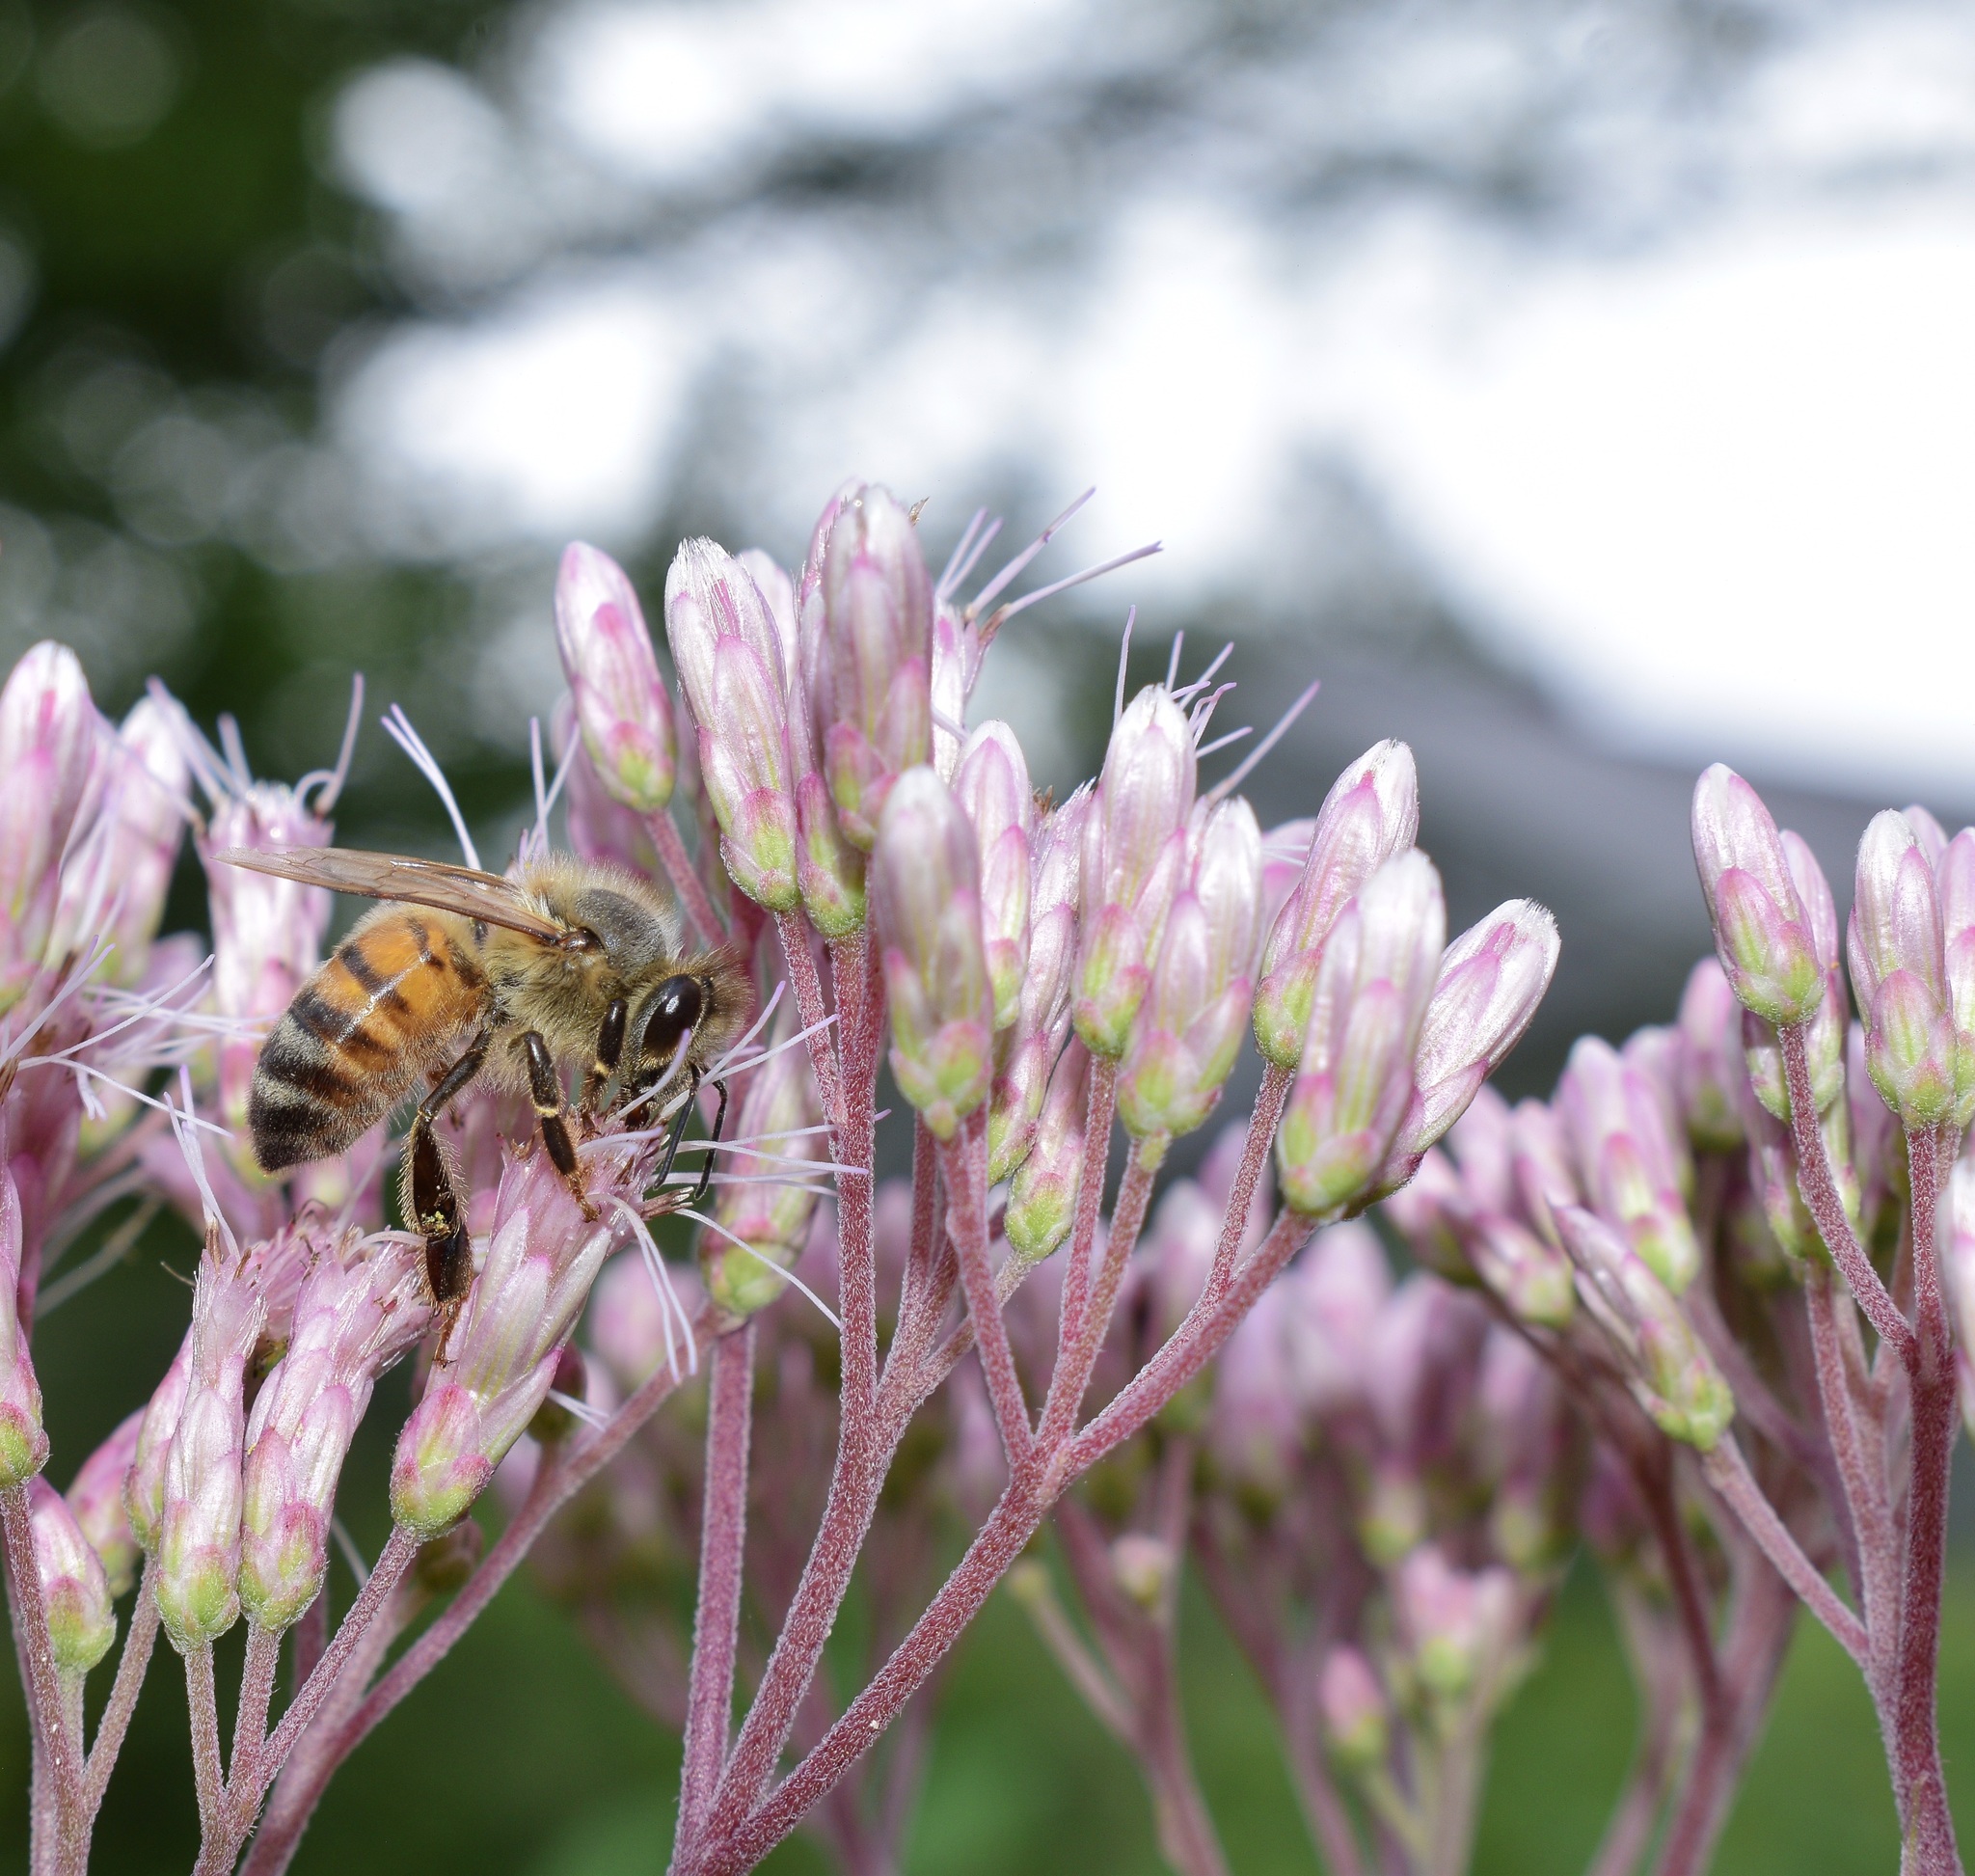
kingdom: Animalia
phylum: Arthropoda
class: Insecta
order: Hymenoptera
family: Apidae
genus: Apis
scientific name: Apis mellifera
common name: Honey bee
